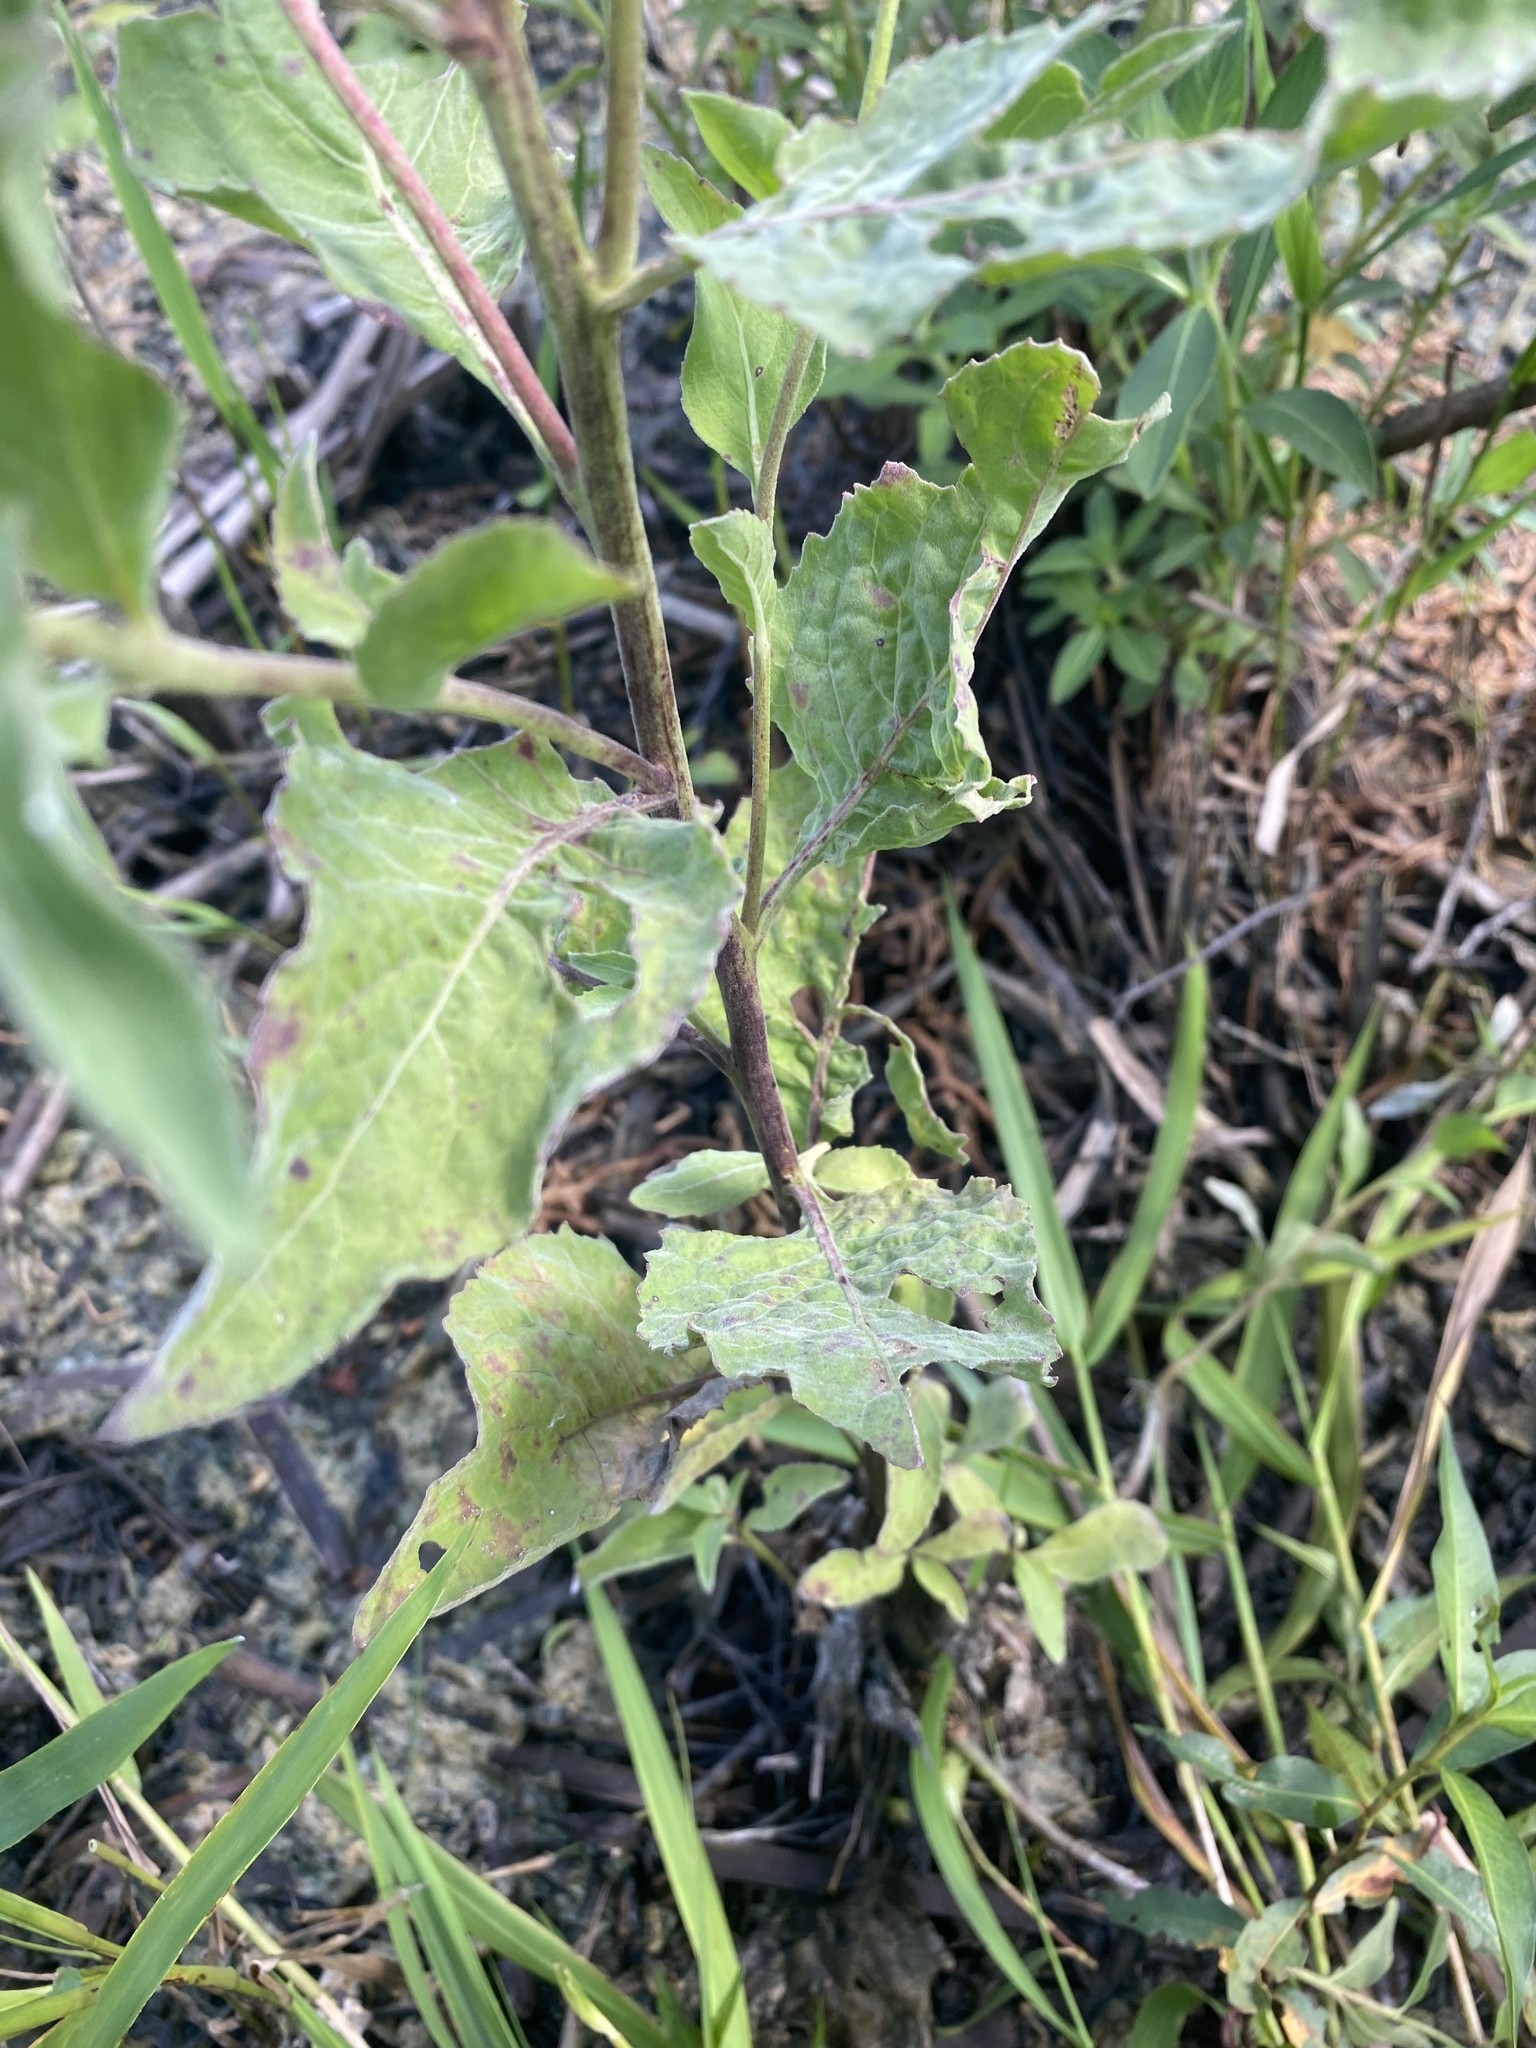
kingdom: Plantae
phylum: Tracheophyta
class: Magnoliopsida
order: Asterales
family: Asteraceae
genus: Pluchea
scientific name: Pluchea odorata
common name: Saltmarsh fleabane
